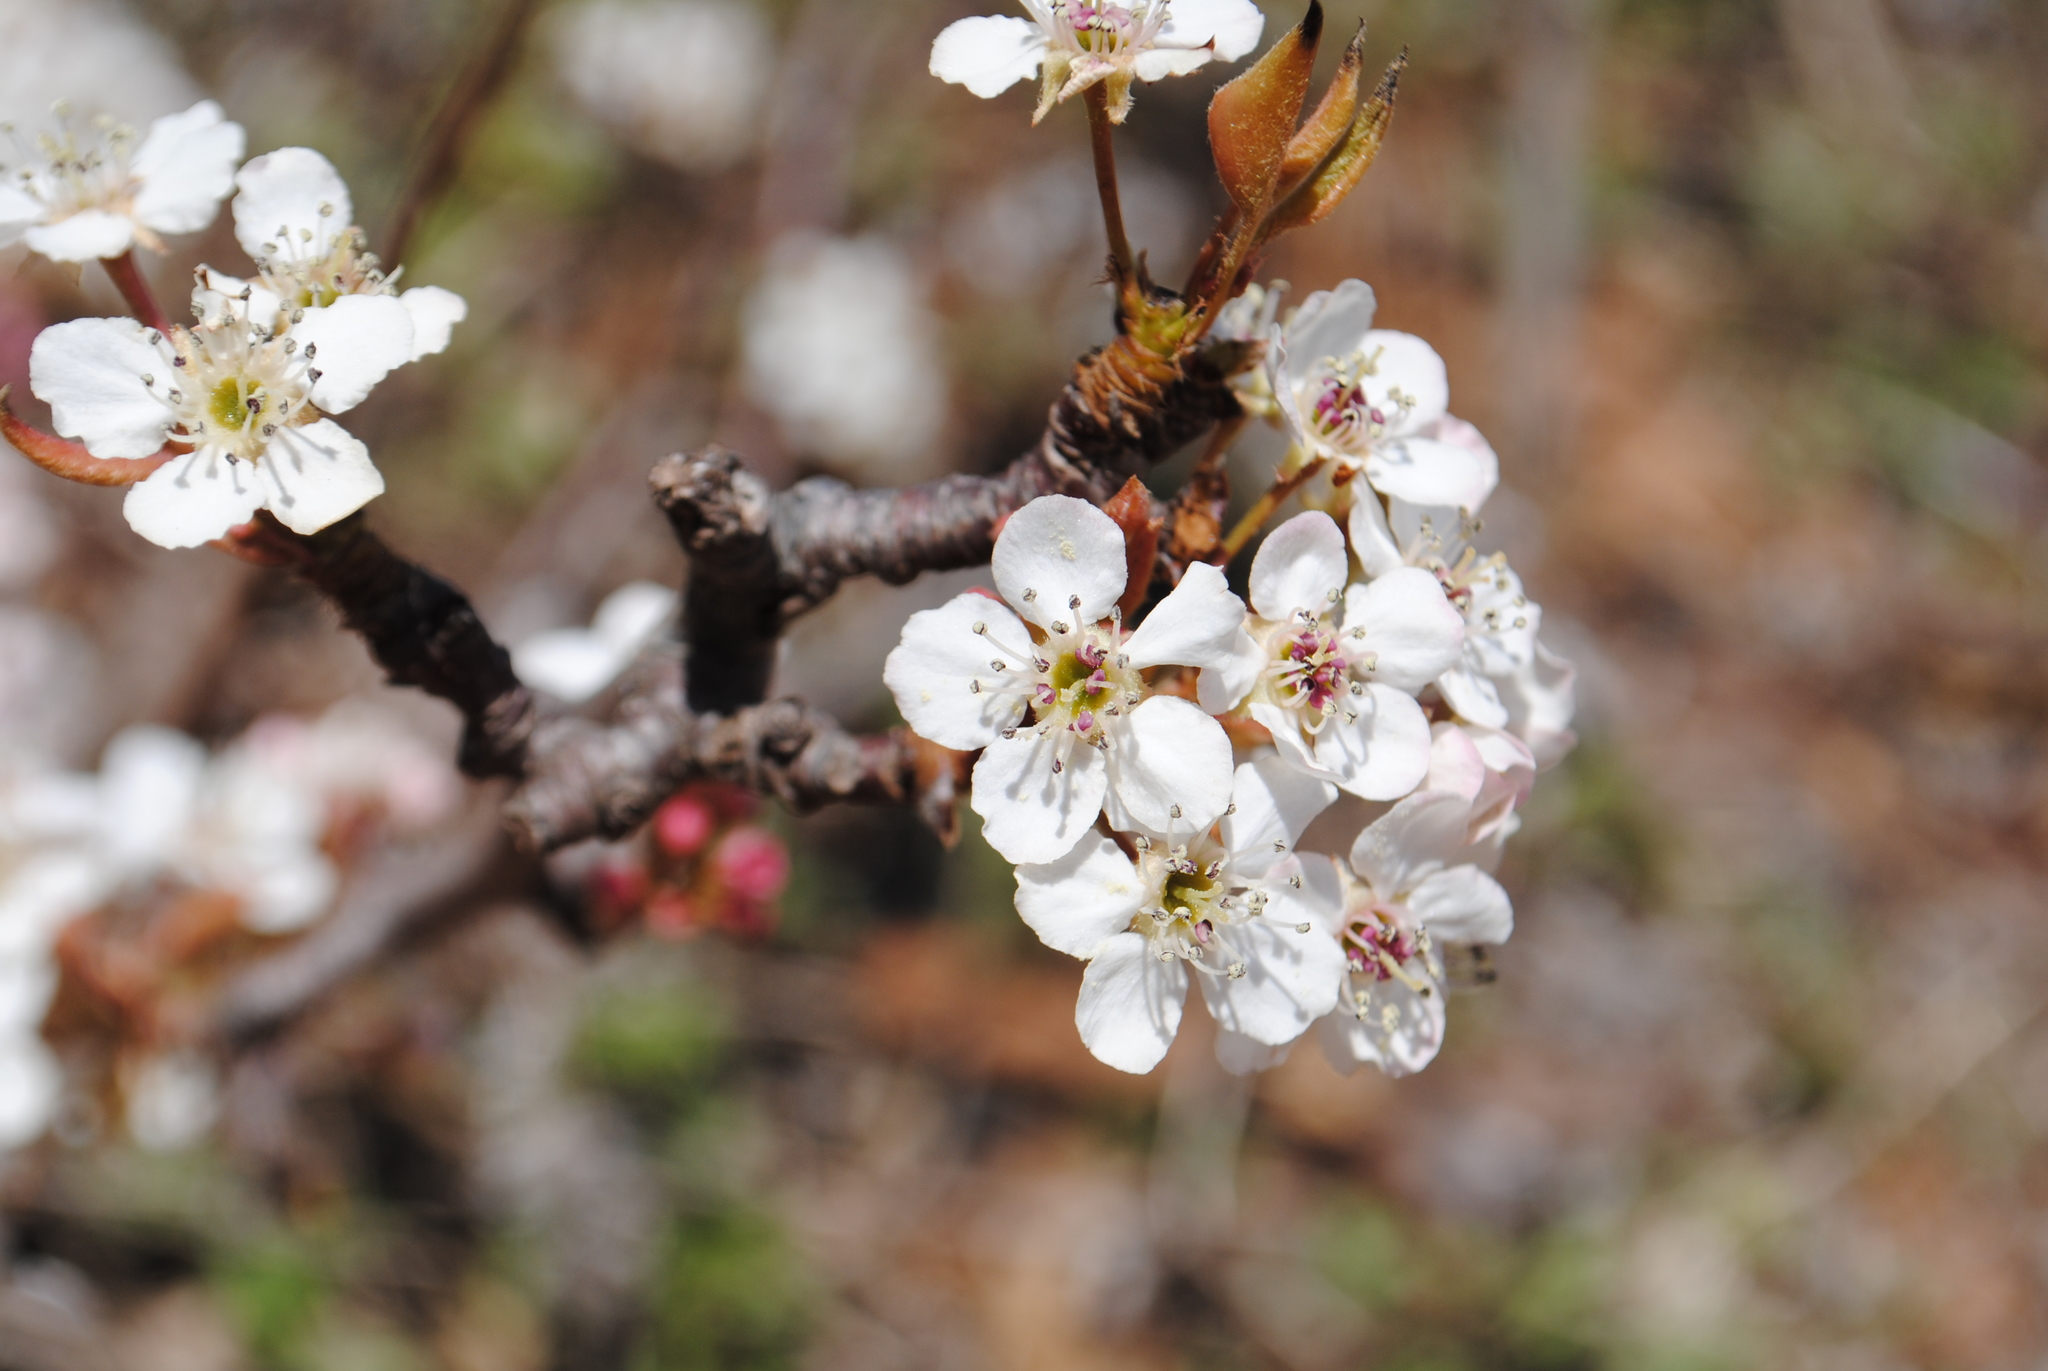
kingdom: Plantae
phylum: Tracheophyta
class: Magnoliopsida
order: Rosales
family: Rosaceae
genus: Pyrus
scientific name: Pyrus calleryana
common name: Callery pear
